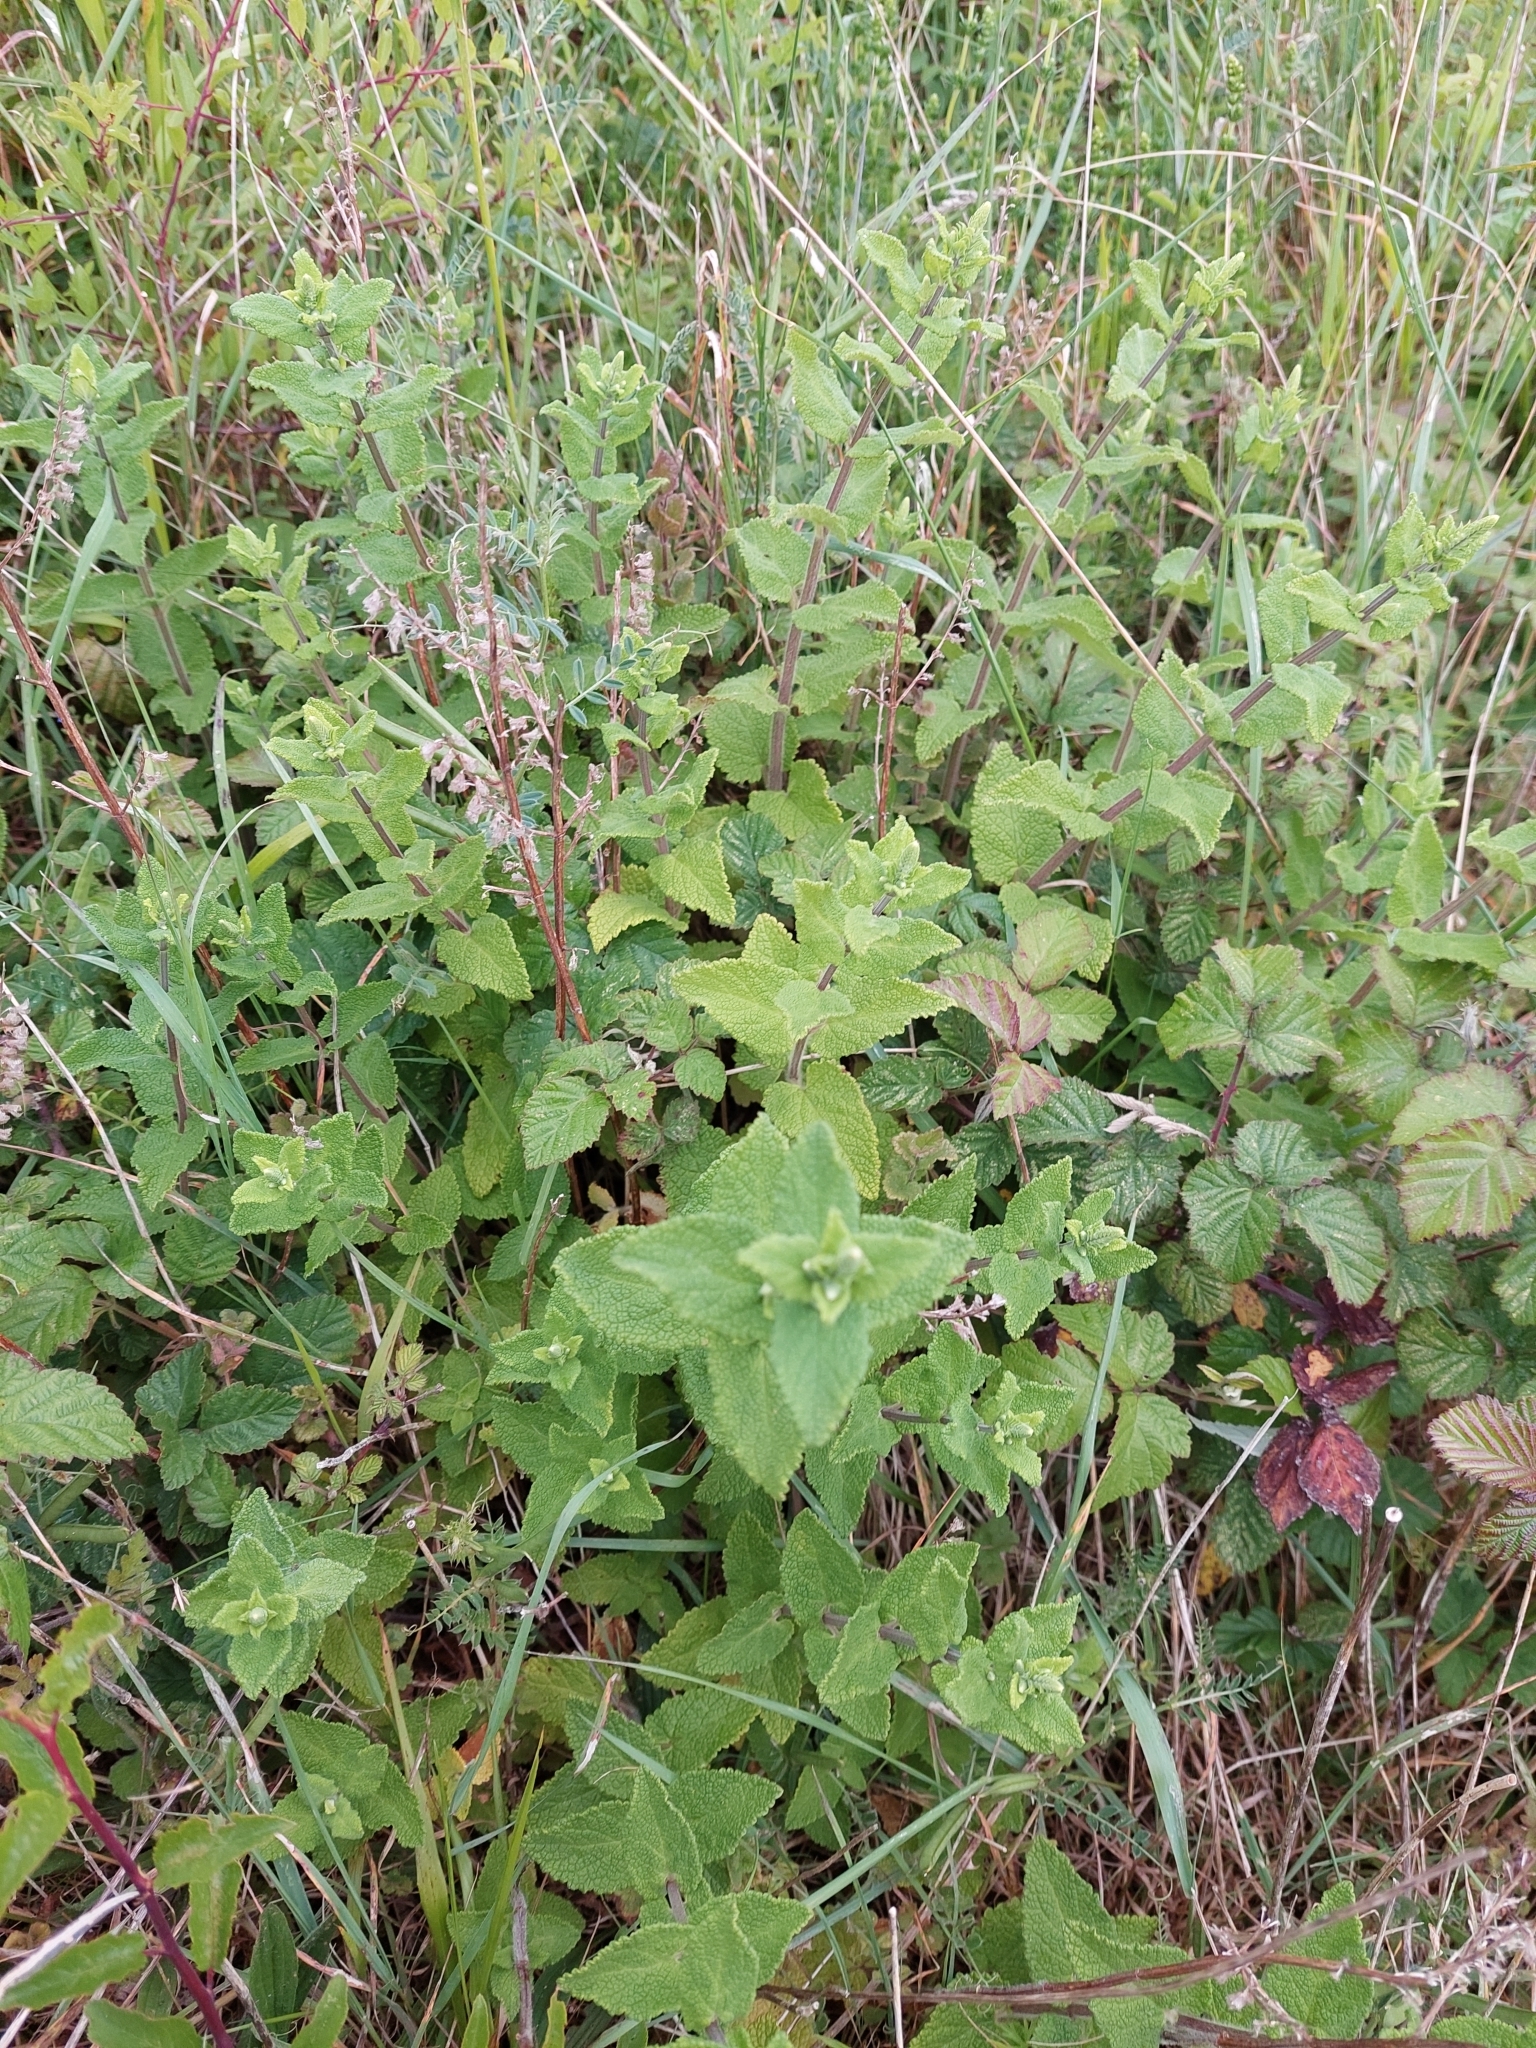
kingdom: Plantae
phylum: Tracheophyta
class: Magnoliopsida
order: Lamiales
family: Lamiaceae
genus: Teucrium
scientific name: Teucrium scorodonia
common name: Woodland germander
